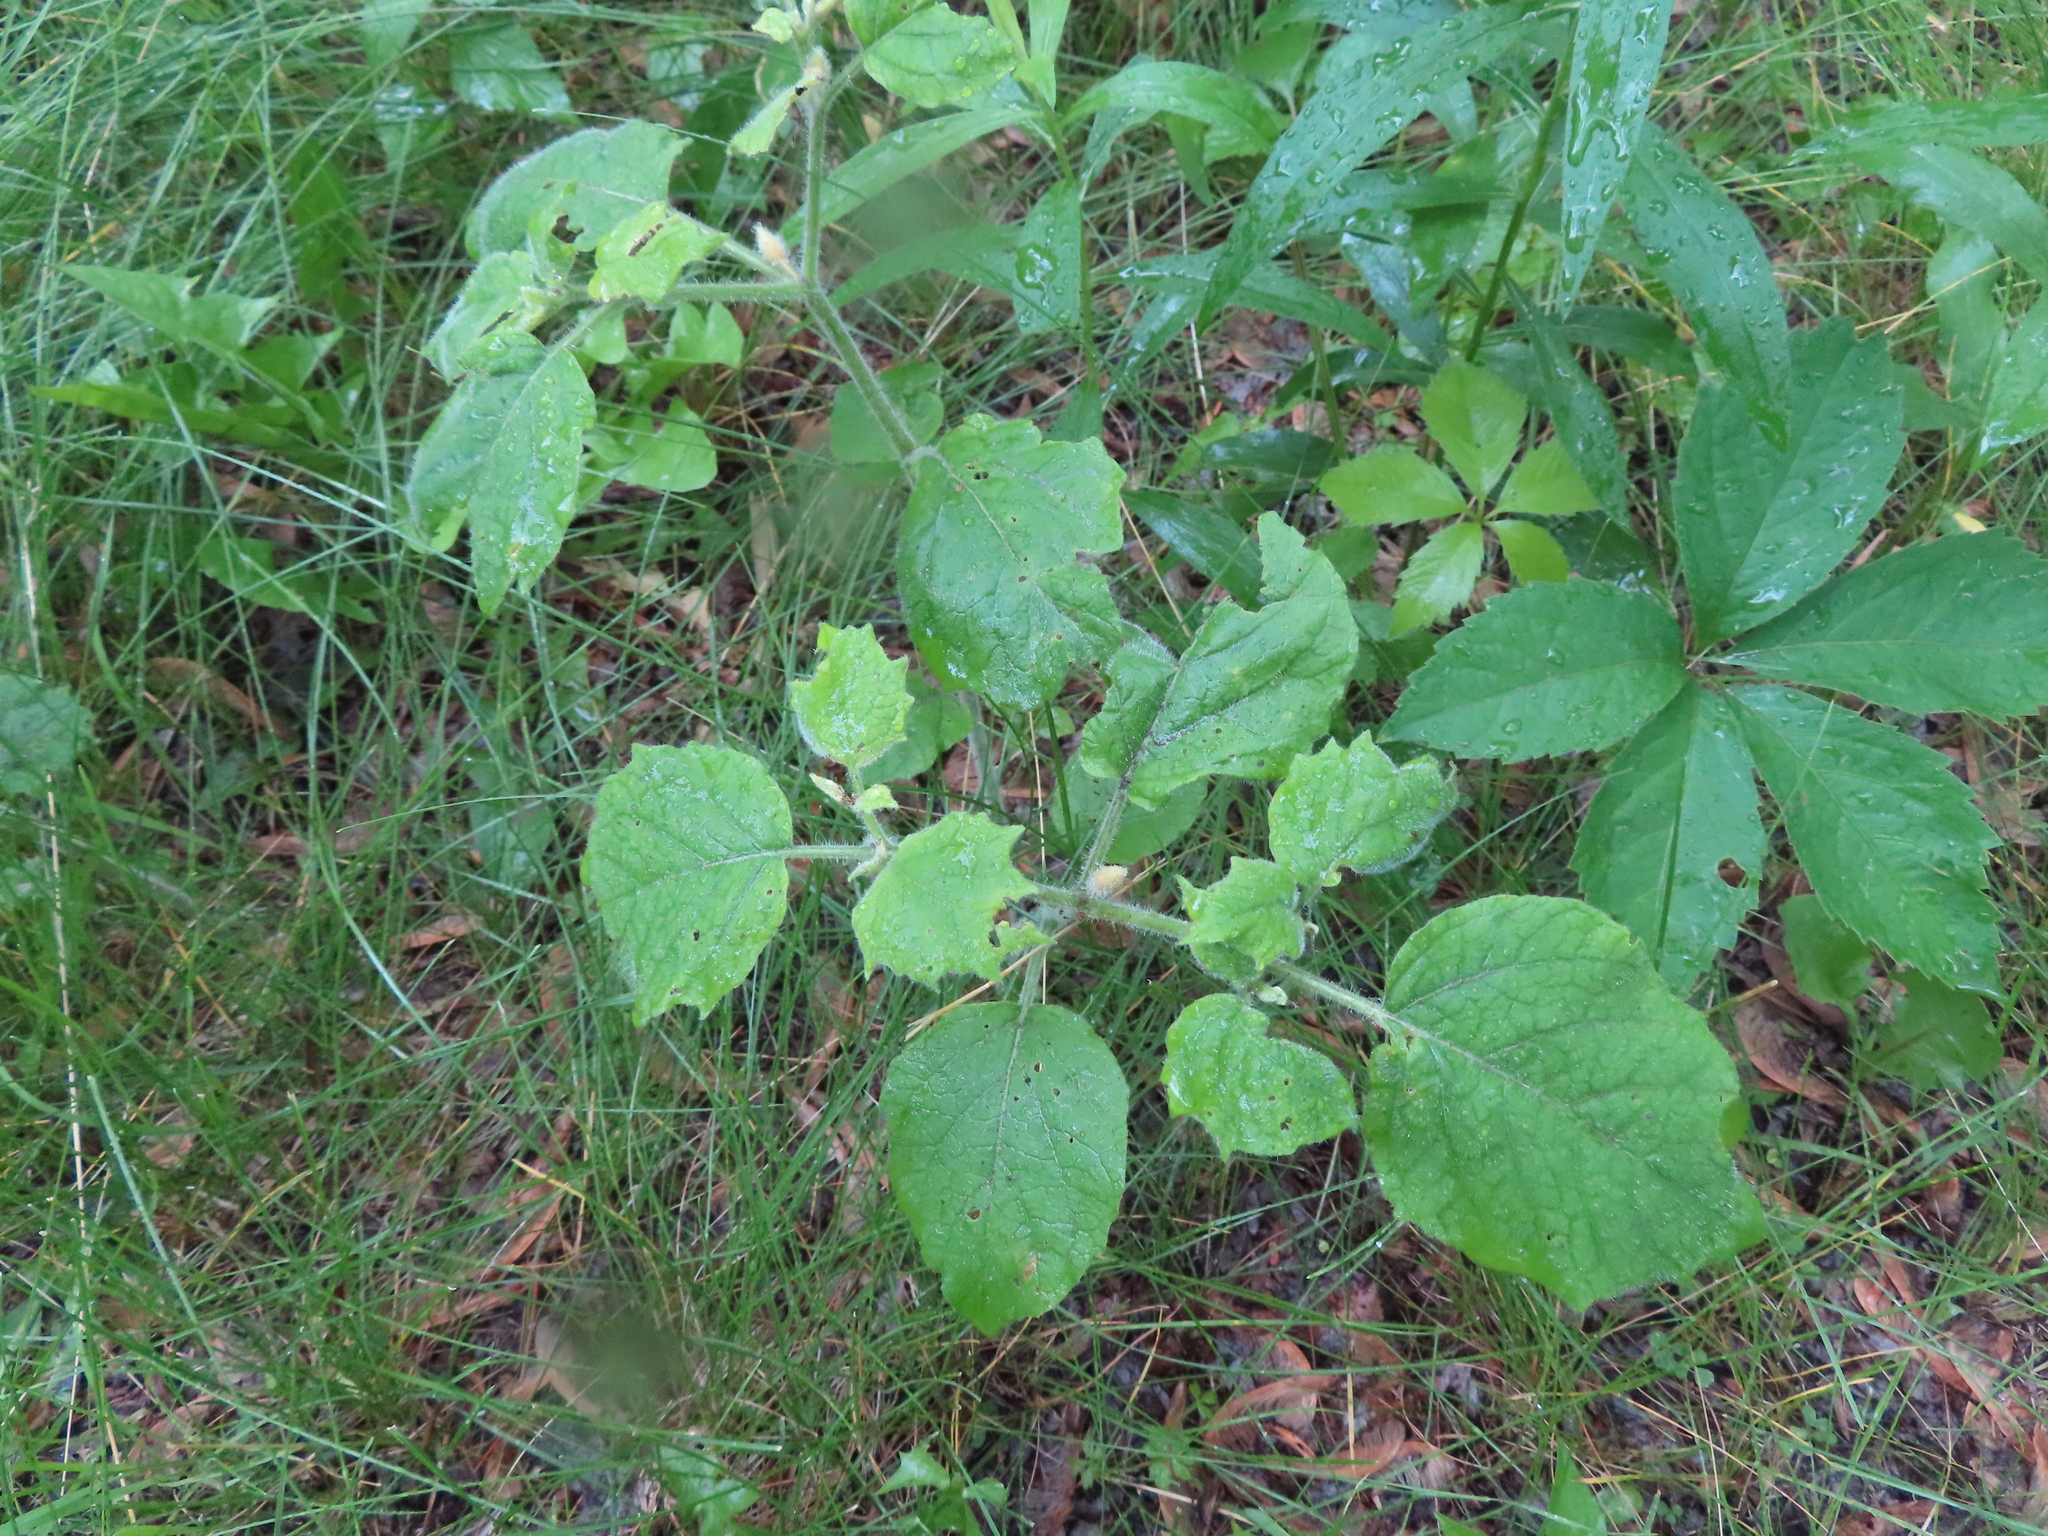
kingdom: Plantae
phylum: Tracheophyta
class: Magnoliopsida
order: Solanales
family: Solanaceae
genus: Physalis
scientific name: Physalis heterophylla
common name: Clammy ground-cherry
